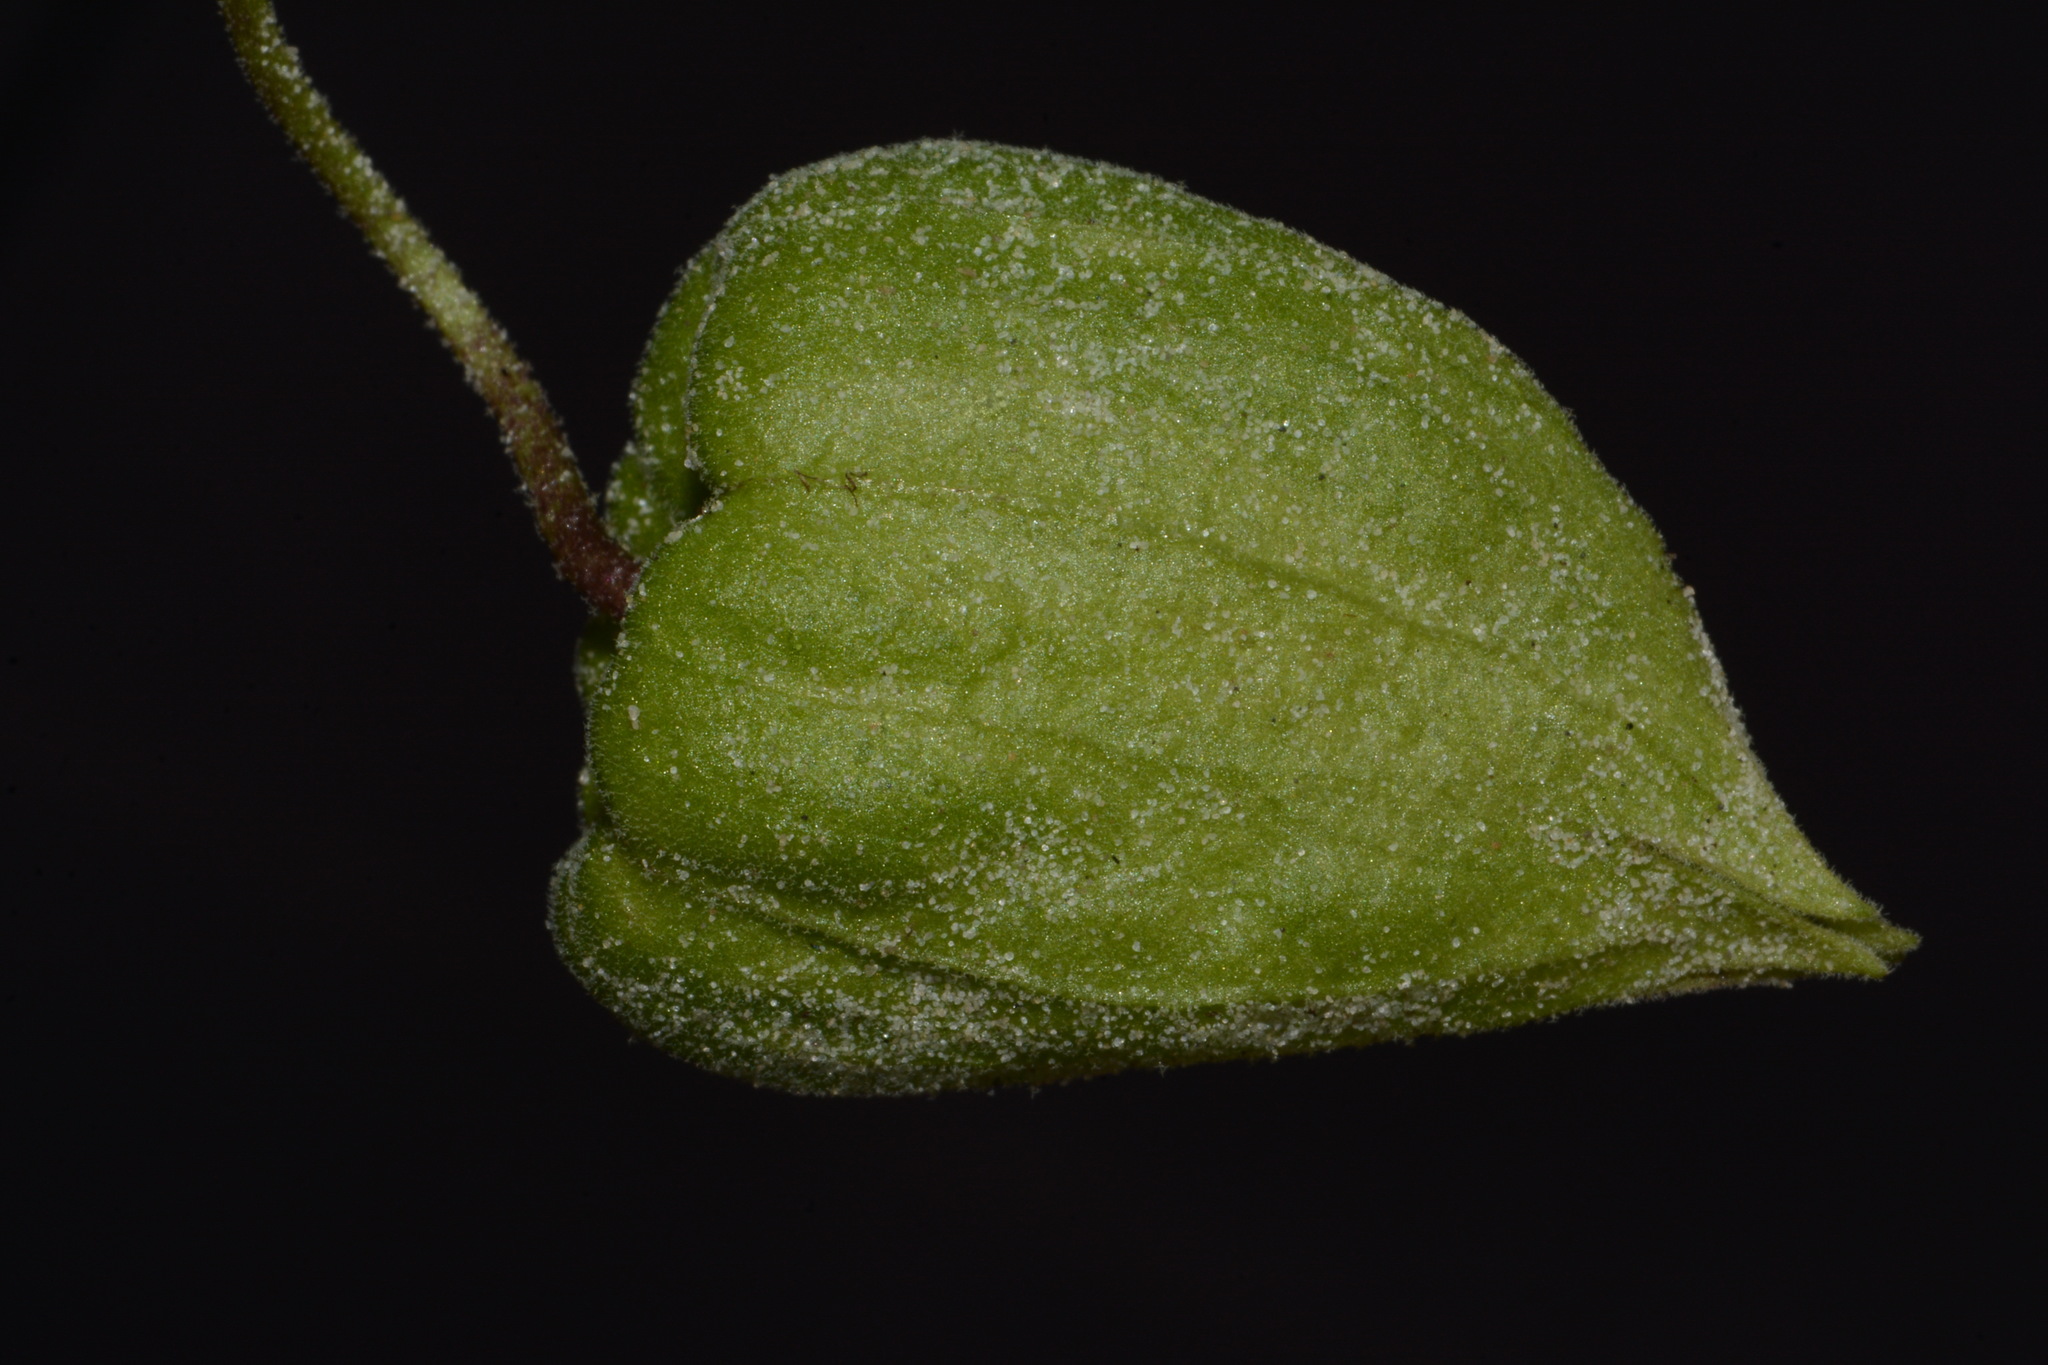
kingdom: Plantae
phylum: Tracheophyta
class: Magnoliopsida
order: Solanales
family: Solanaceae
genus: Physalis
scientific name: Physalis cinerascens
